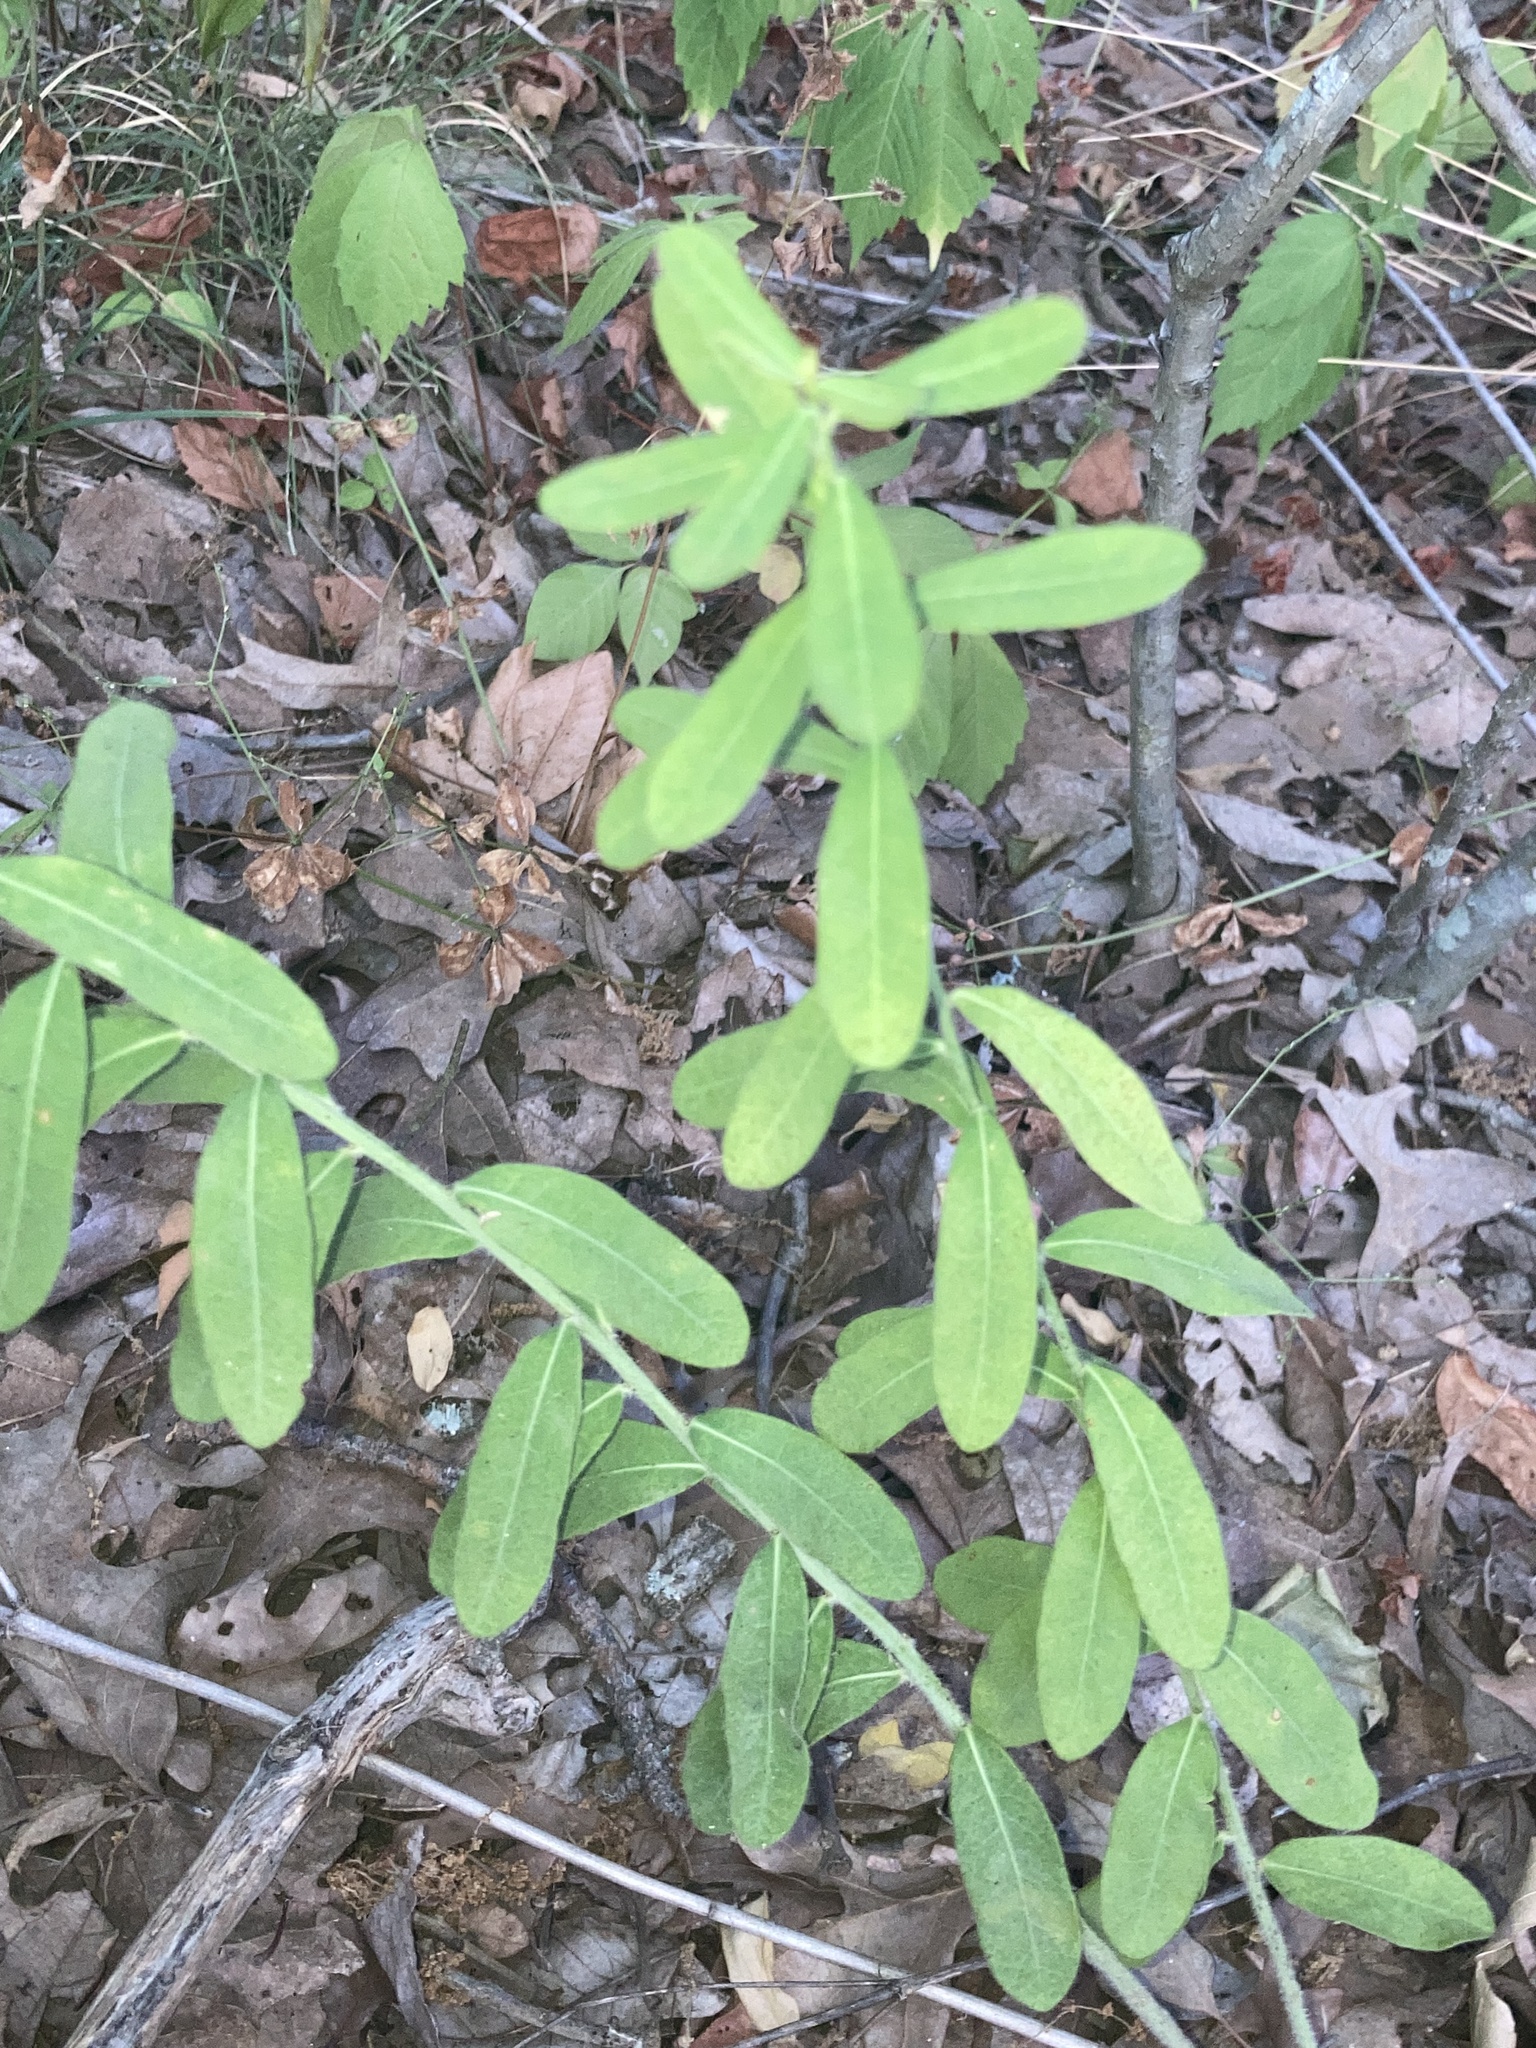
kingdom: Plantae
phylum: Tracheophyta
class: Magnoliopsida
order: Malpighiales
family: Euphorbiaceae
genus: Euphorbia
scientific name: Euphorbia corollata
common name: Flowering spurge
